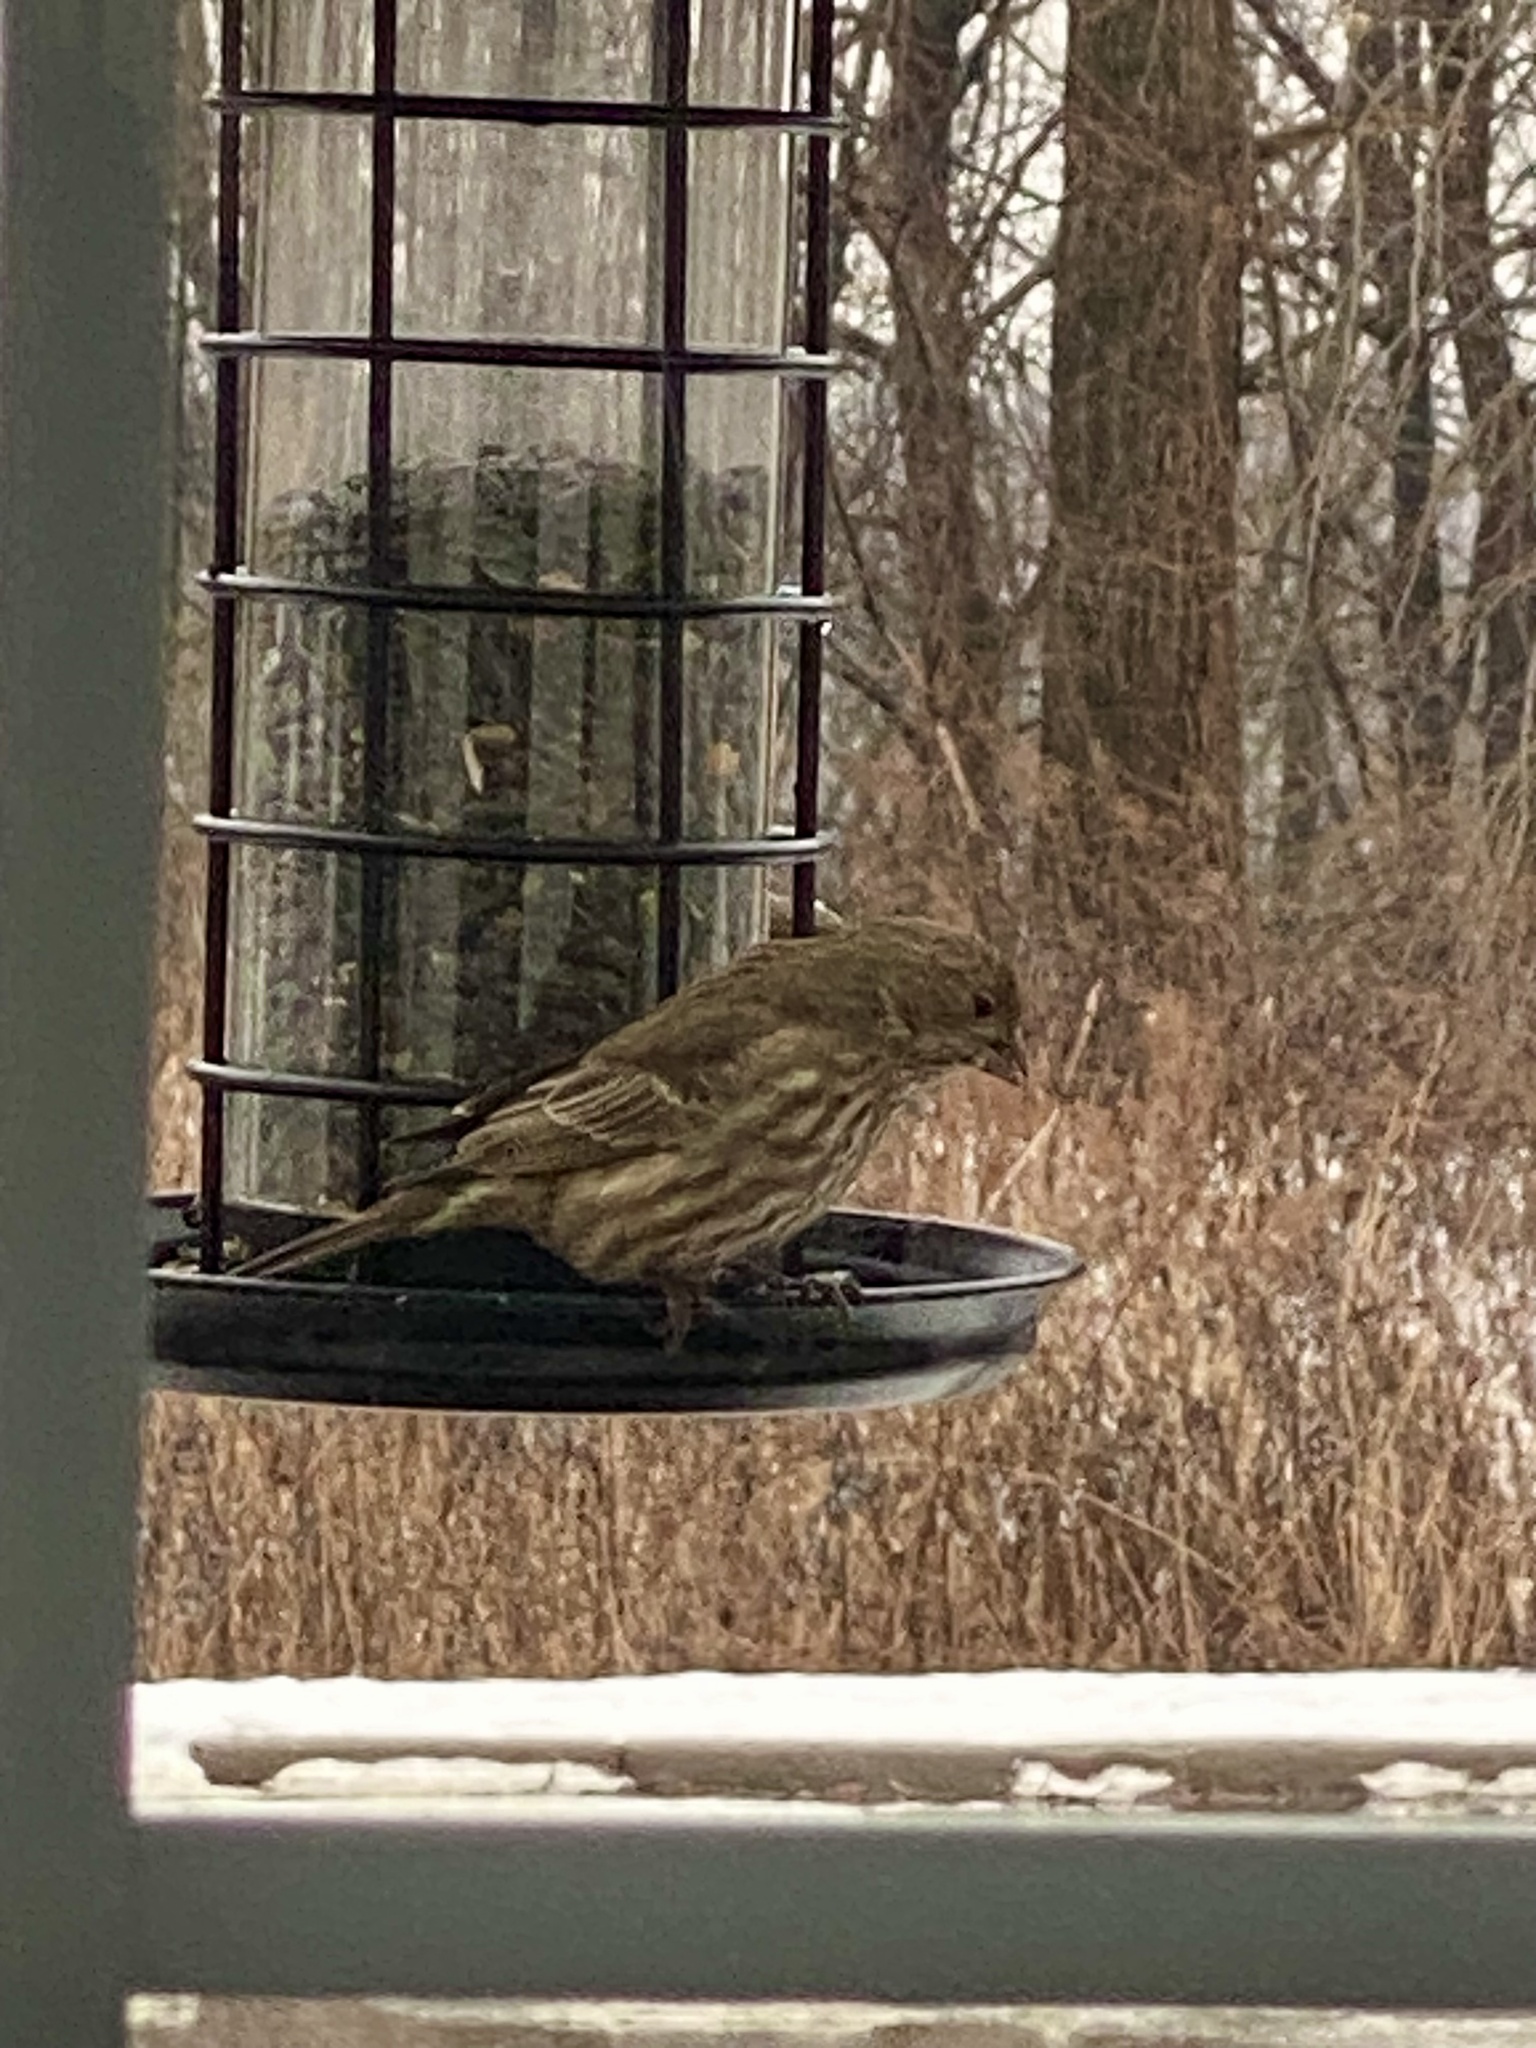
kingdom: Animalia
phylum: Chordata
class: Aves
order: Passeriformes
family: Fringillidae
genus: Haemorhous
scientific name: Haemorhous mexicanus
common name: House finch
